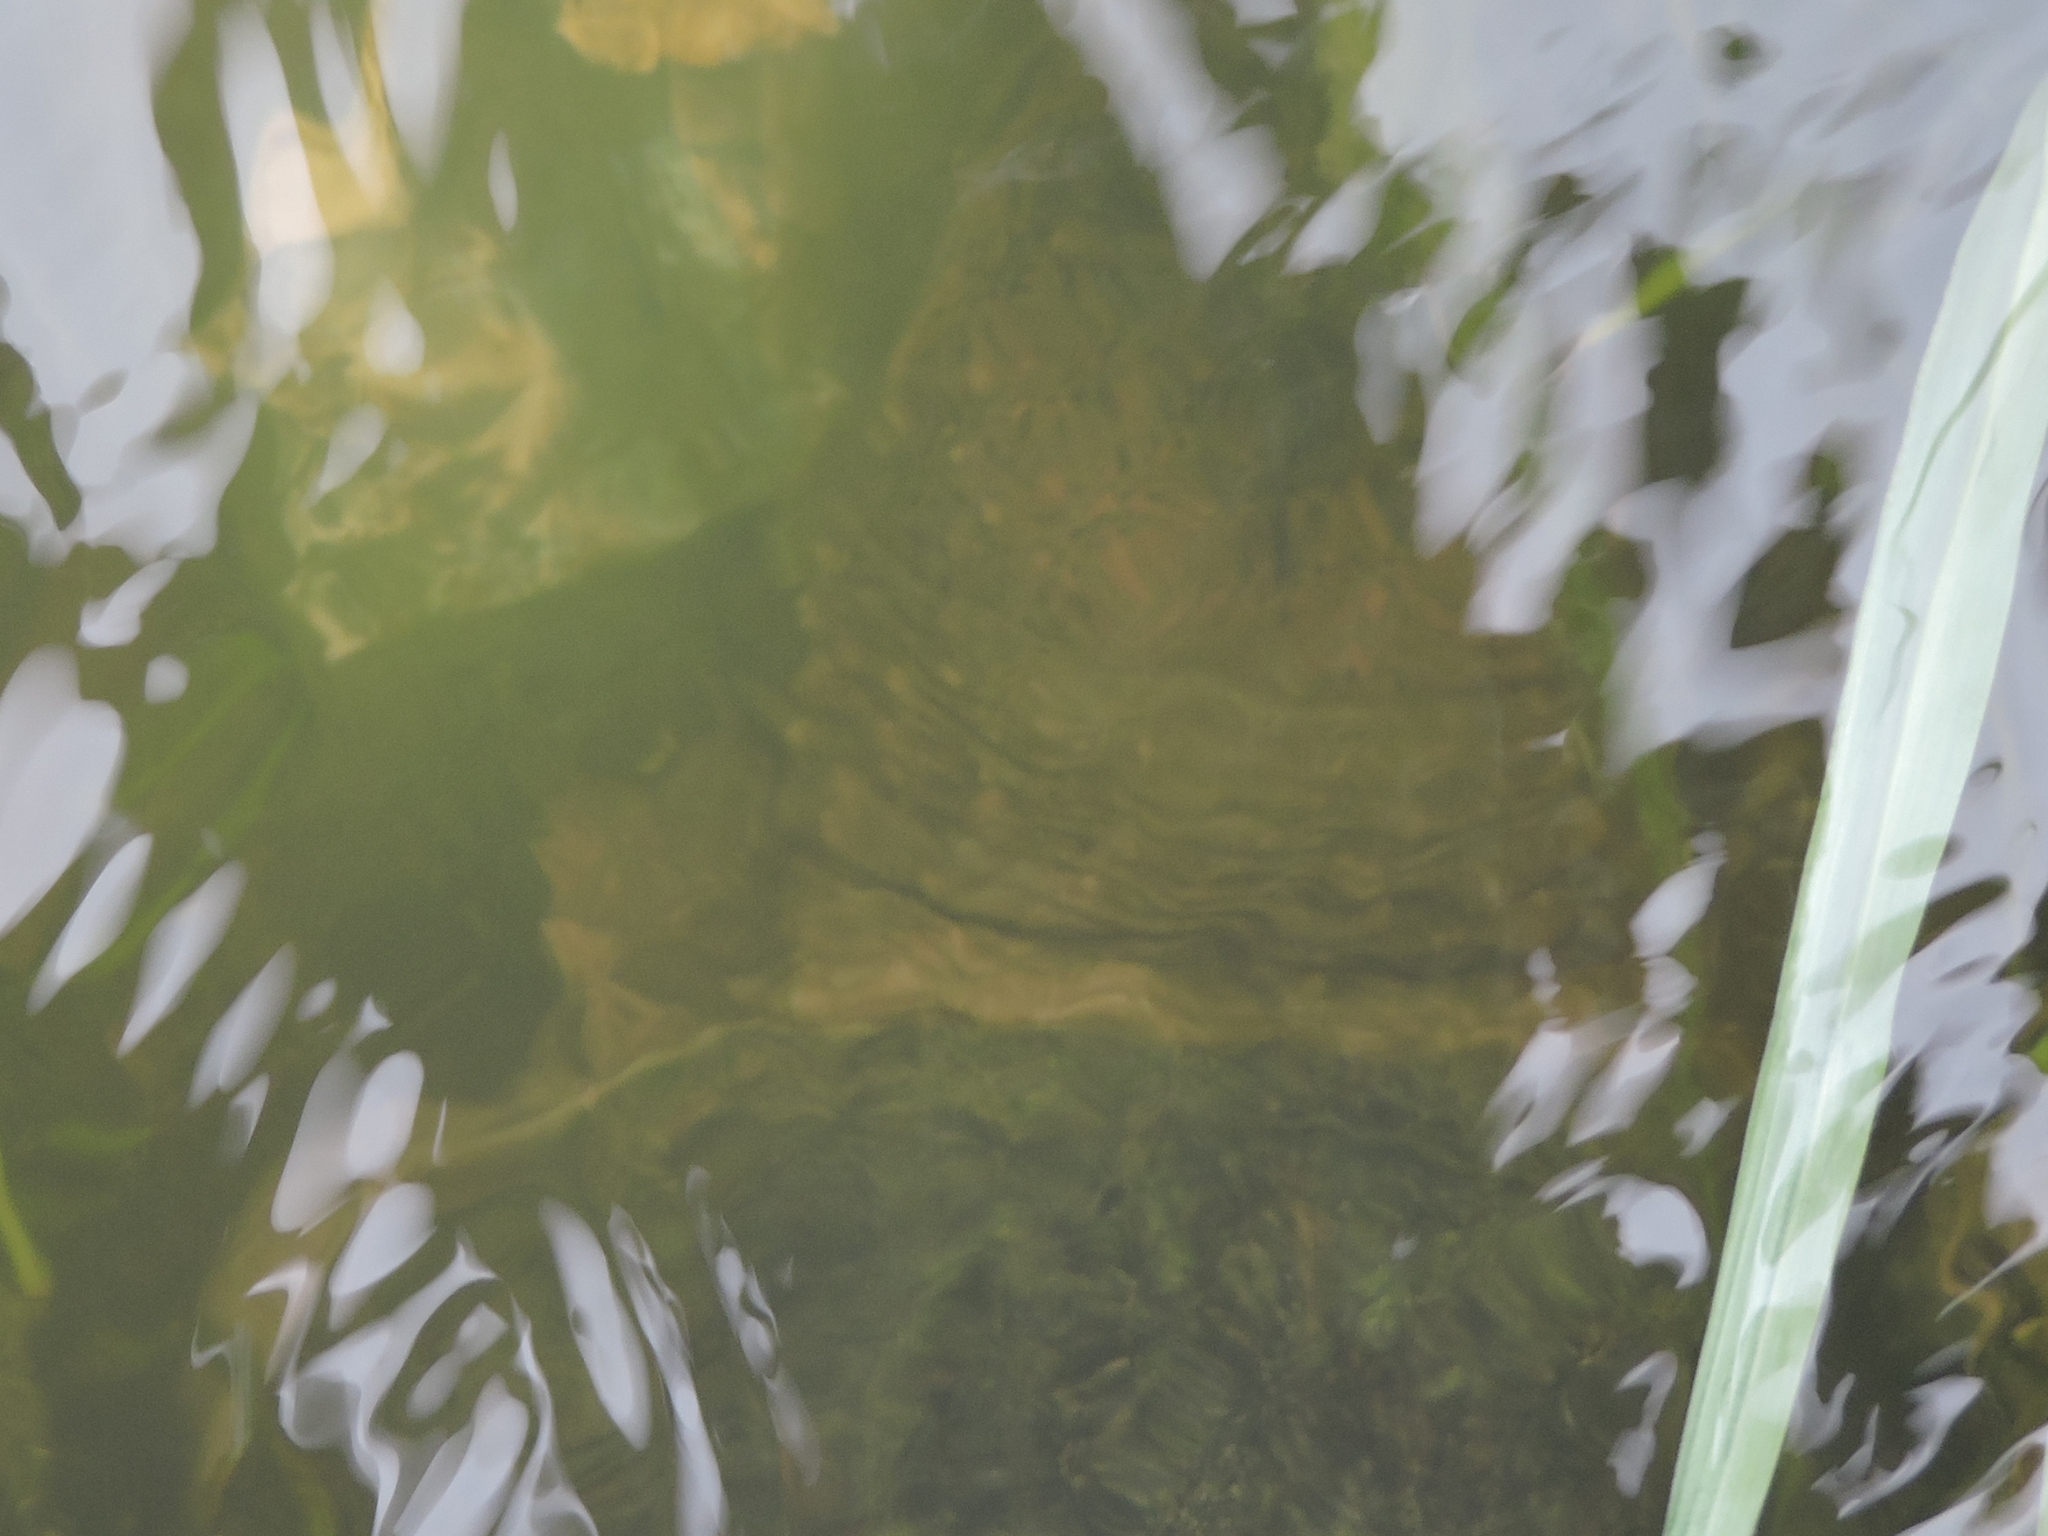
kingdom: Animalia
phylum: Chordata
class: Testudines
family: Chelydridae
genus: Chelydra
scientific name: Chelydra serpentina
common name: Common snapping turtle
